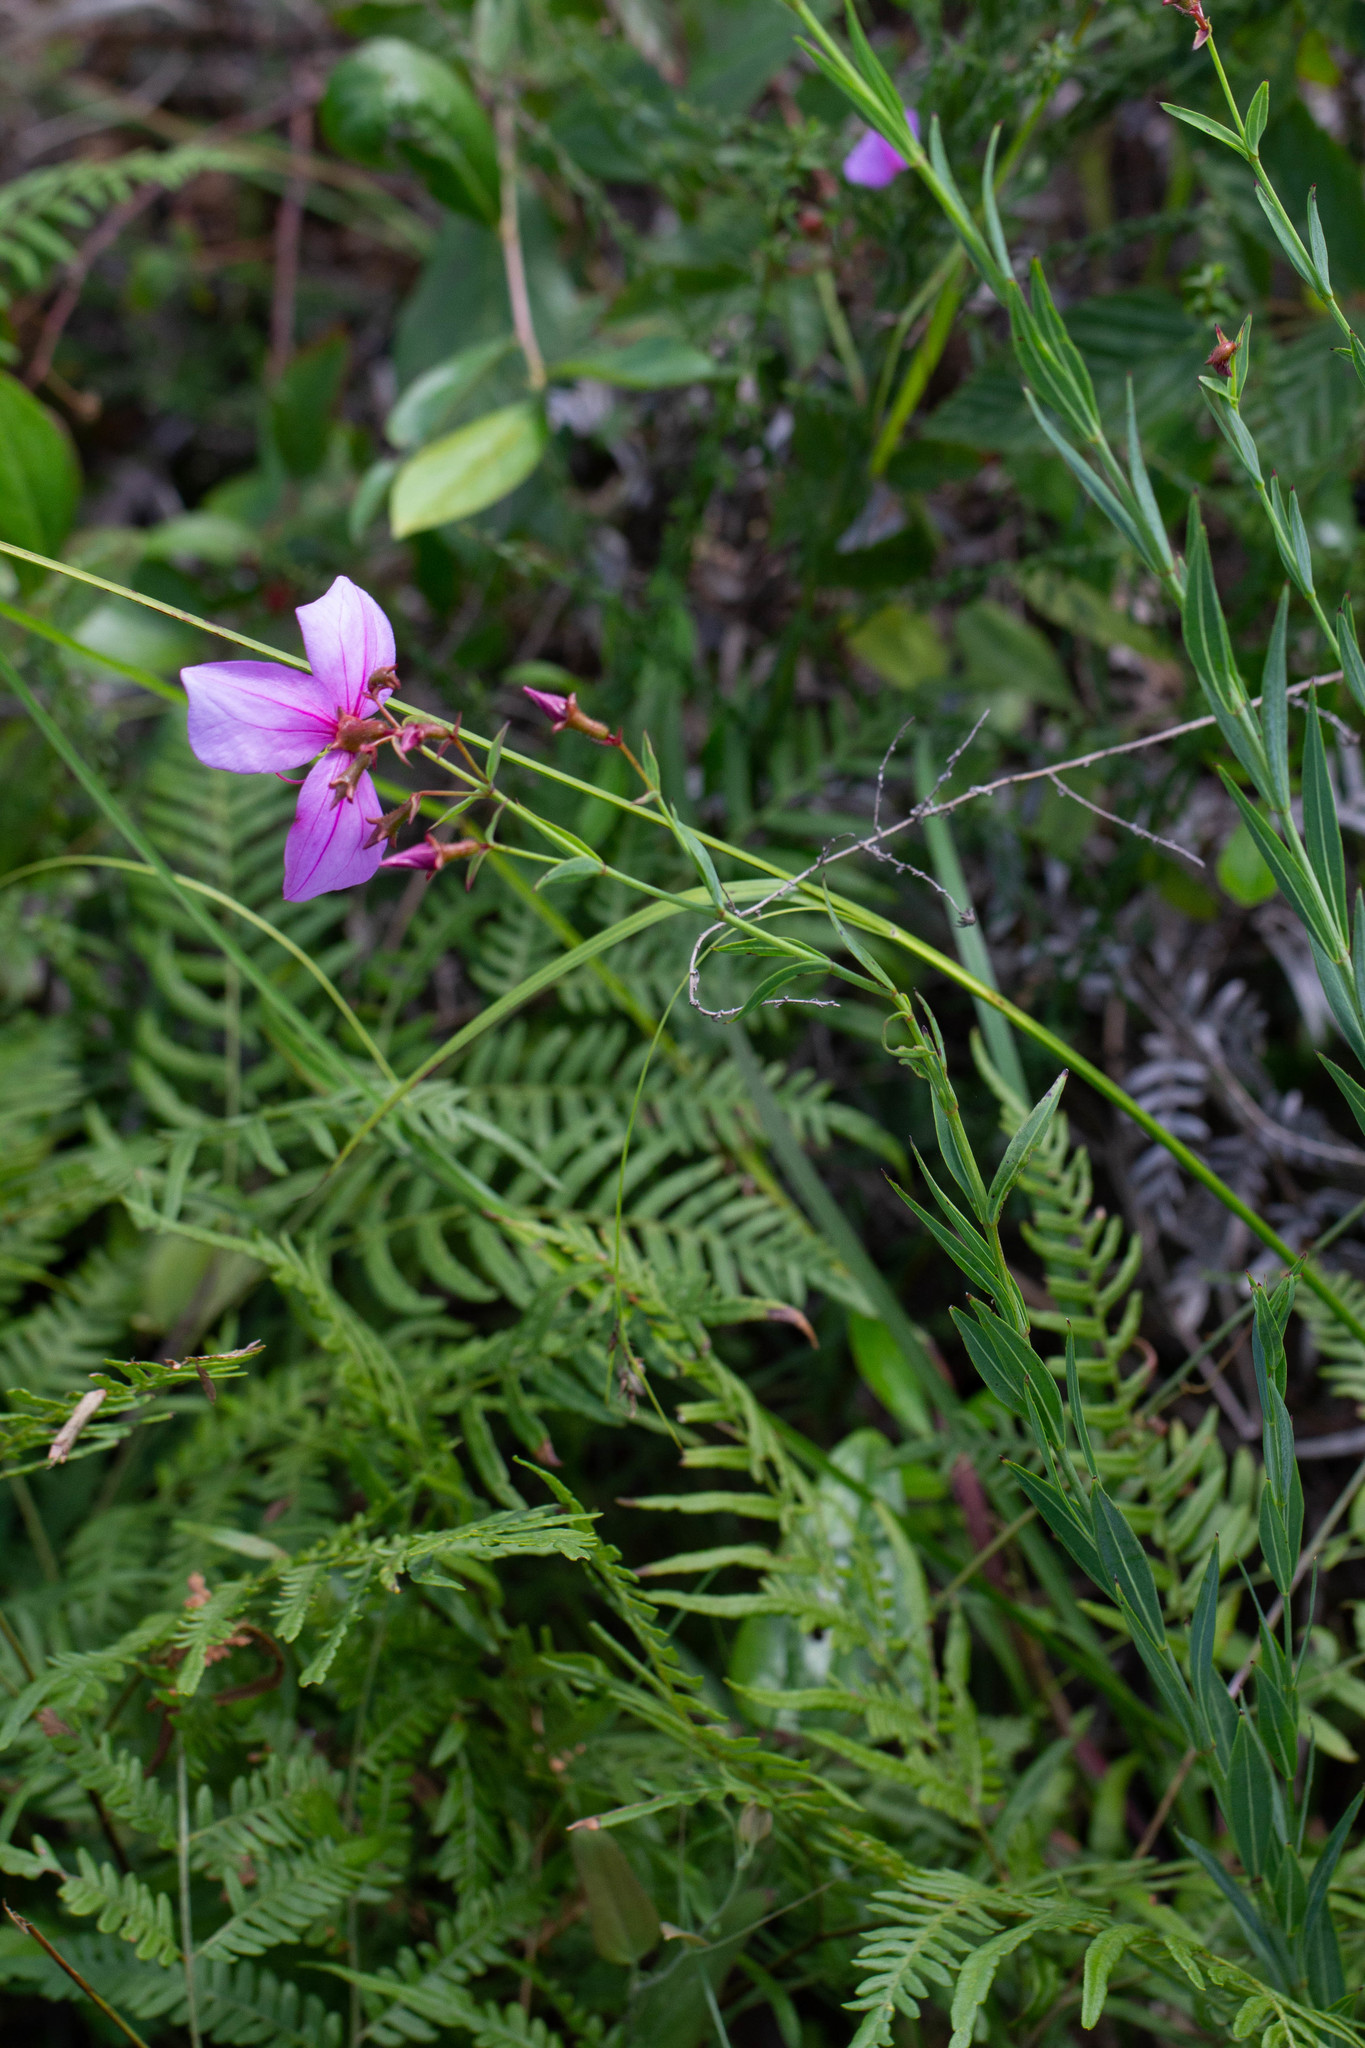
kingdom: Plantae
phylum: Tracheophyta
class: Magnoliopsida
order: Myrtales
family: Melastomataceae
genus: Rhexia
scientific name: Rhexia alifanus
